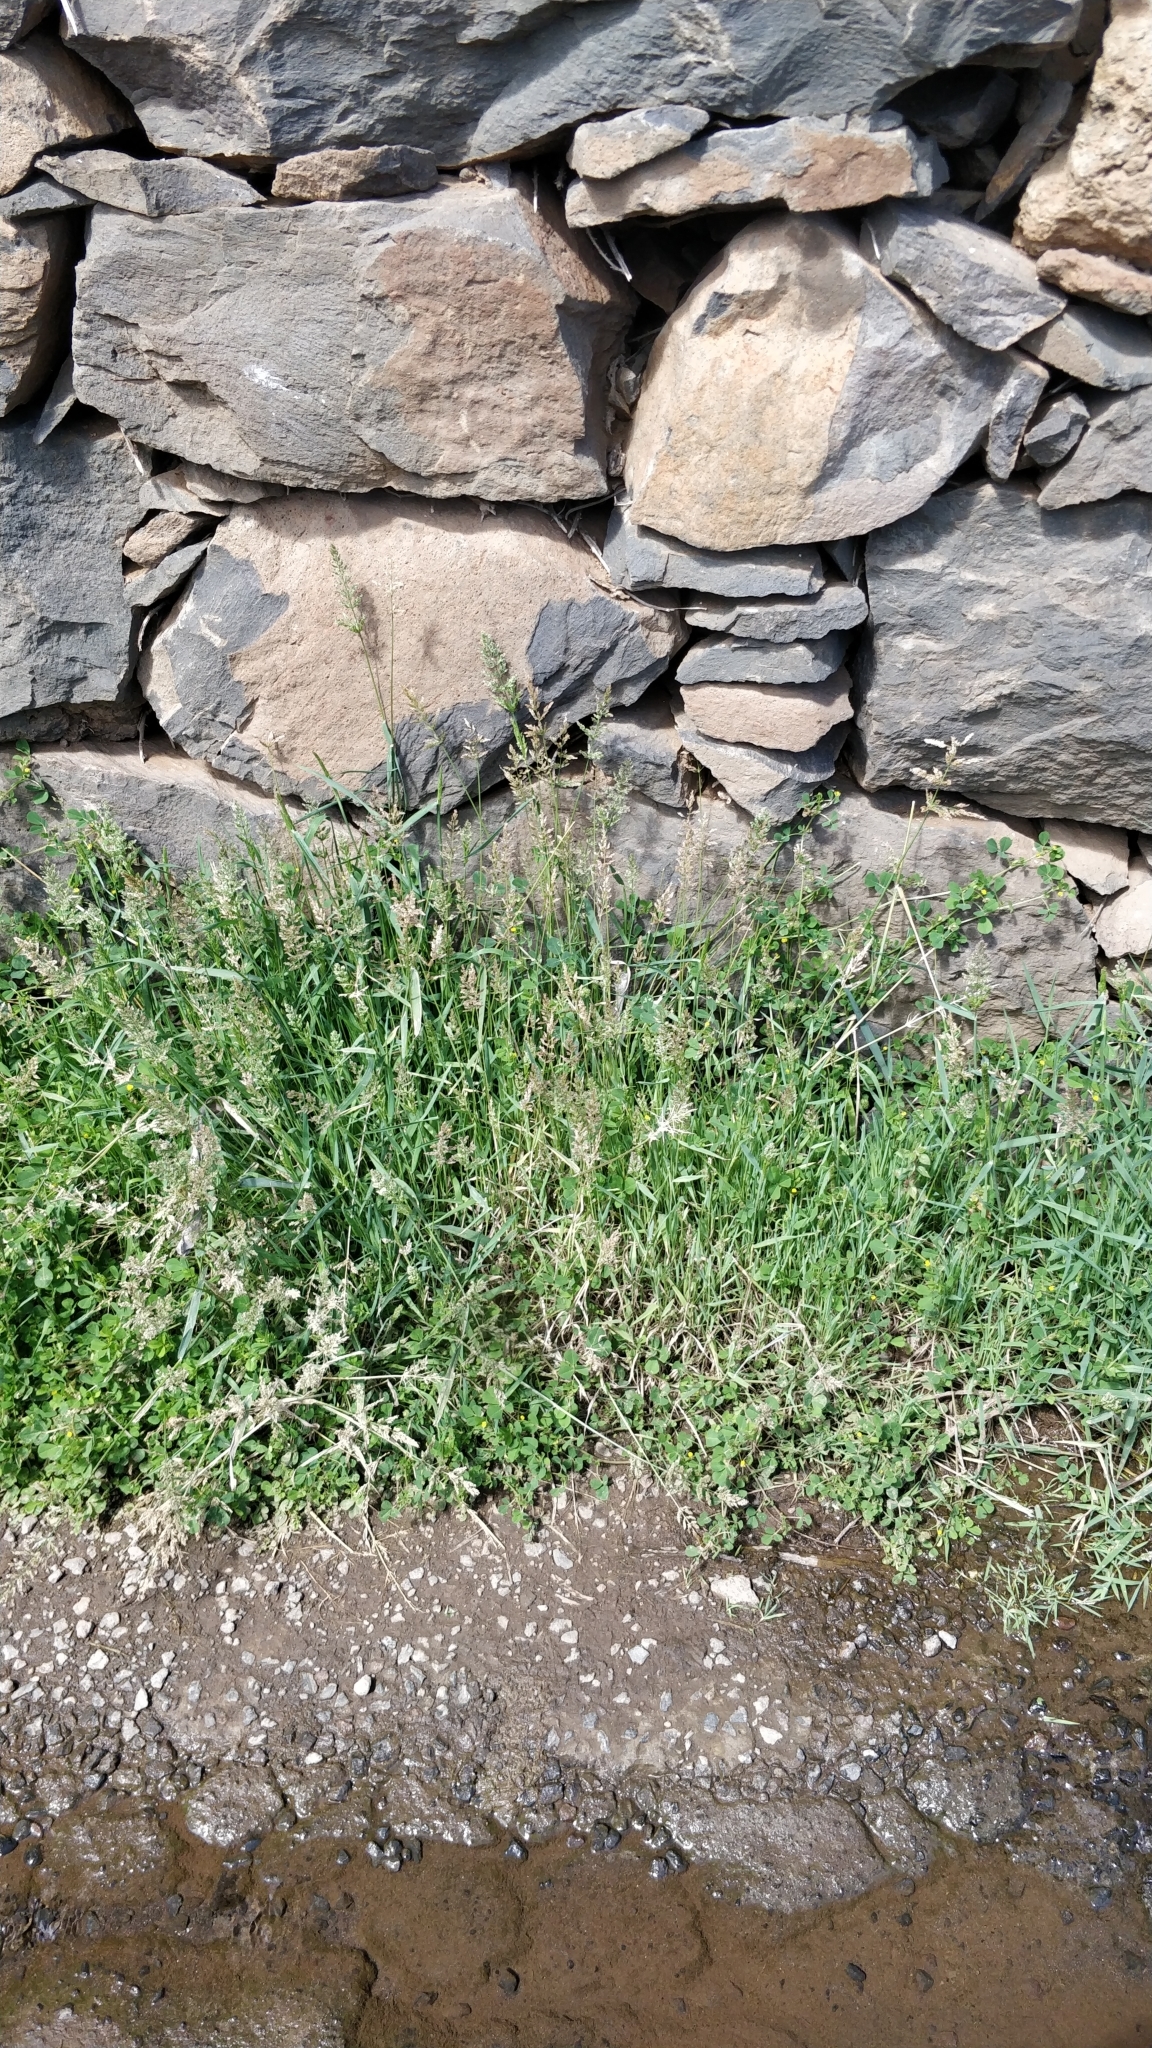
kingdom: Plantae
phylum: Tracheophyta
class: Liliopsida
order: Poales
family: Poaceae
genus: Polypogon
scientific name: Polypogon viridis
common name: Water bent
